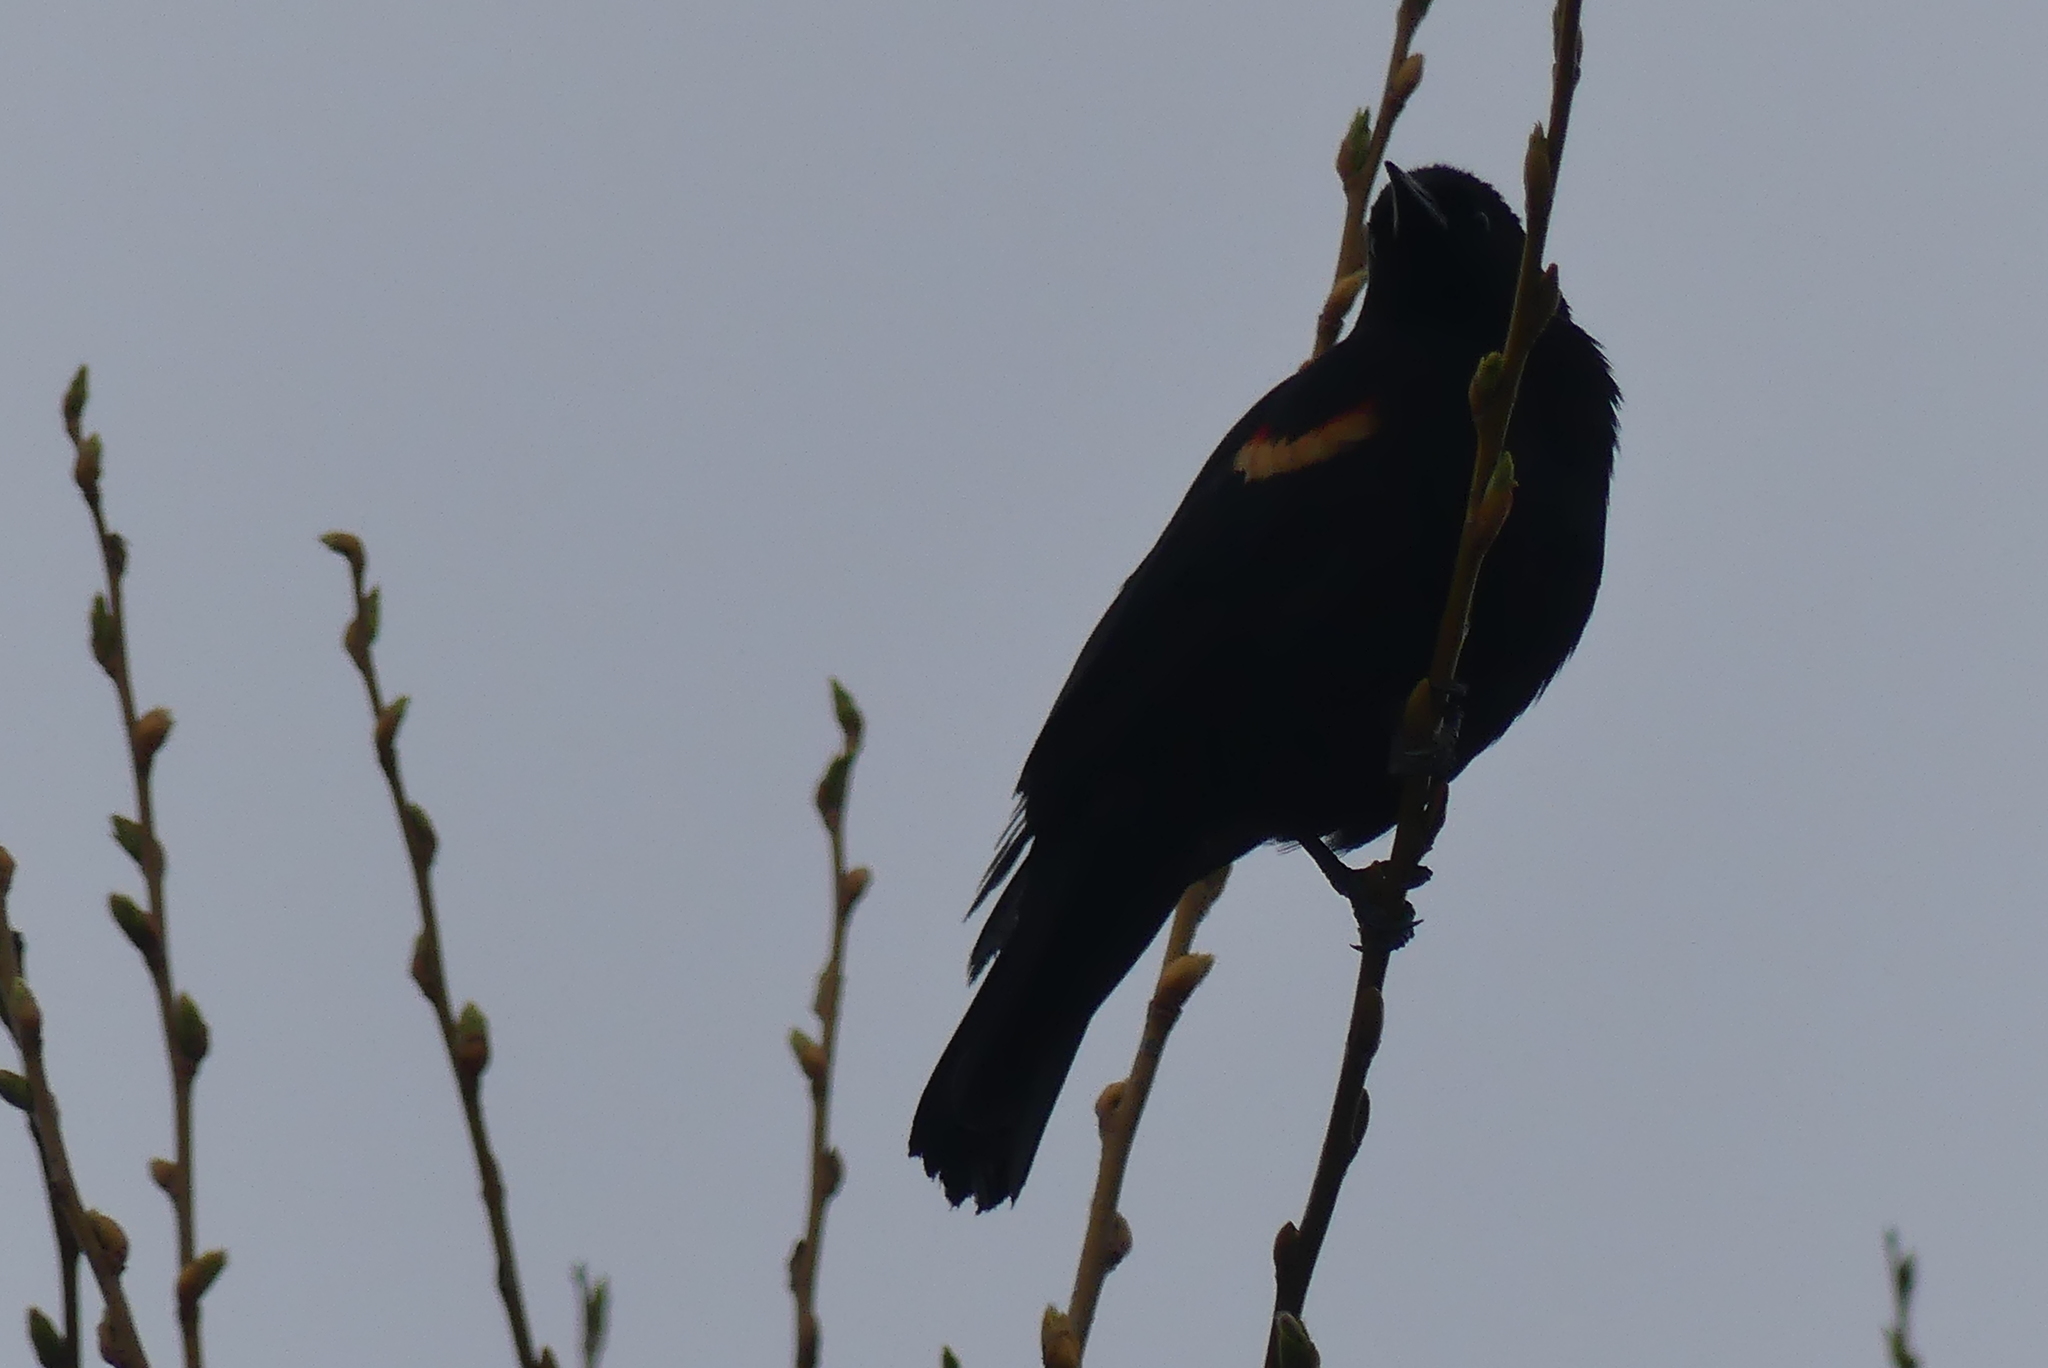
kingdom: Animalia
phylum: Chordata
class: Aves
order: Passeriformes
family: Icteridae
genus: Agelaius
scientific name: Agelaius phoeniceus
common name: Red-winged blackbird
